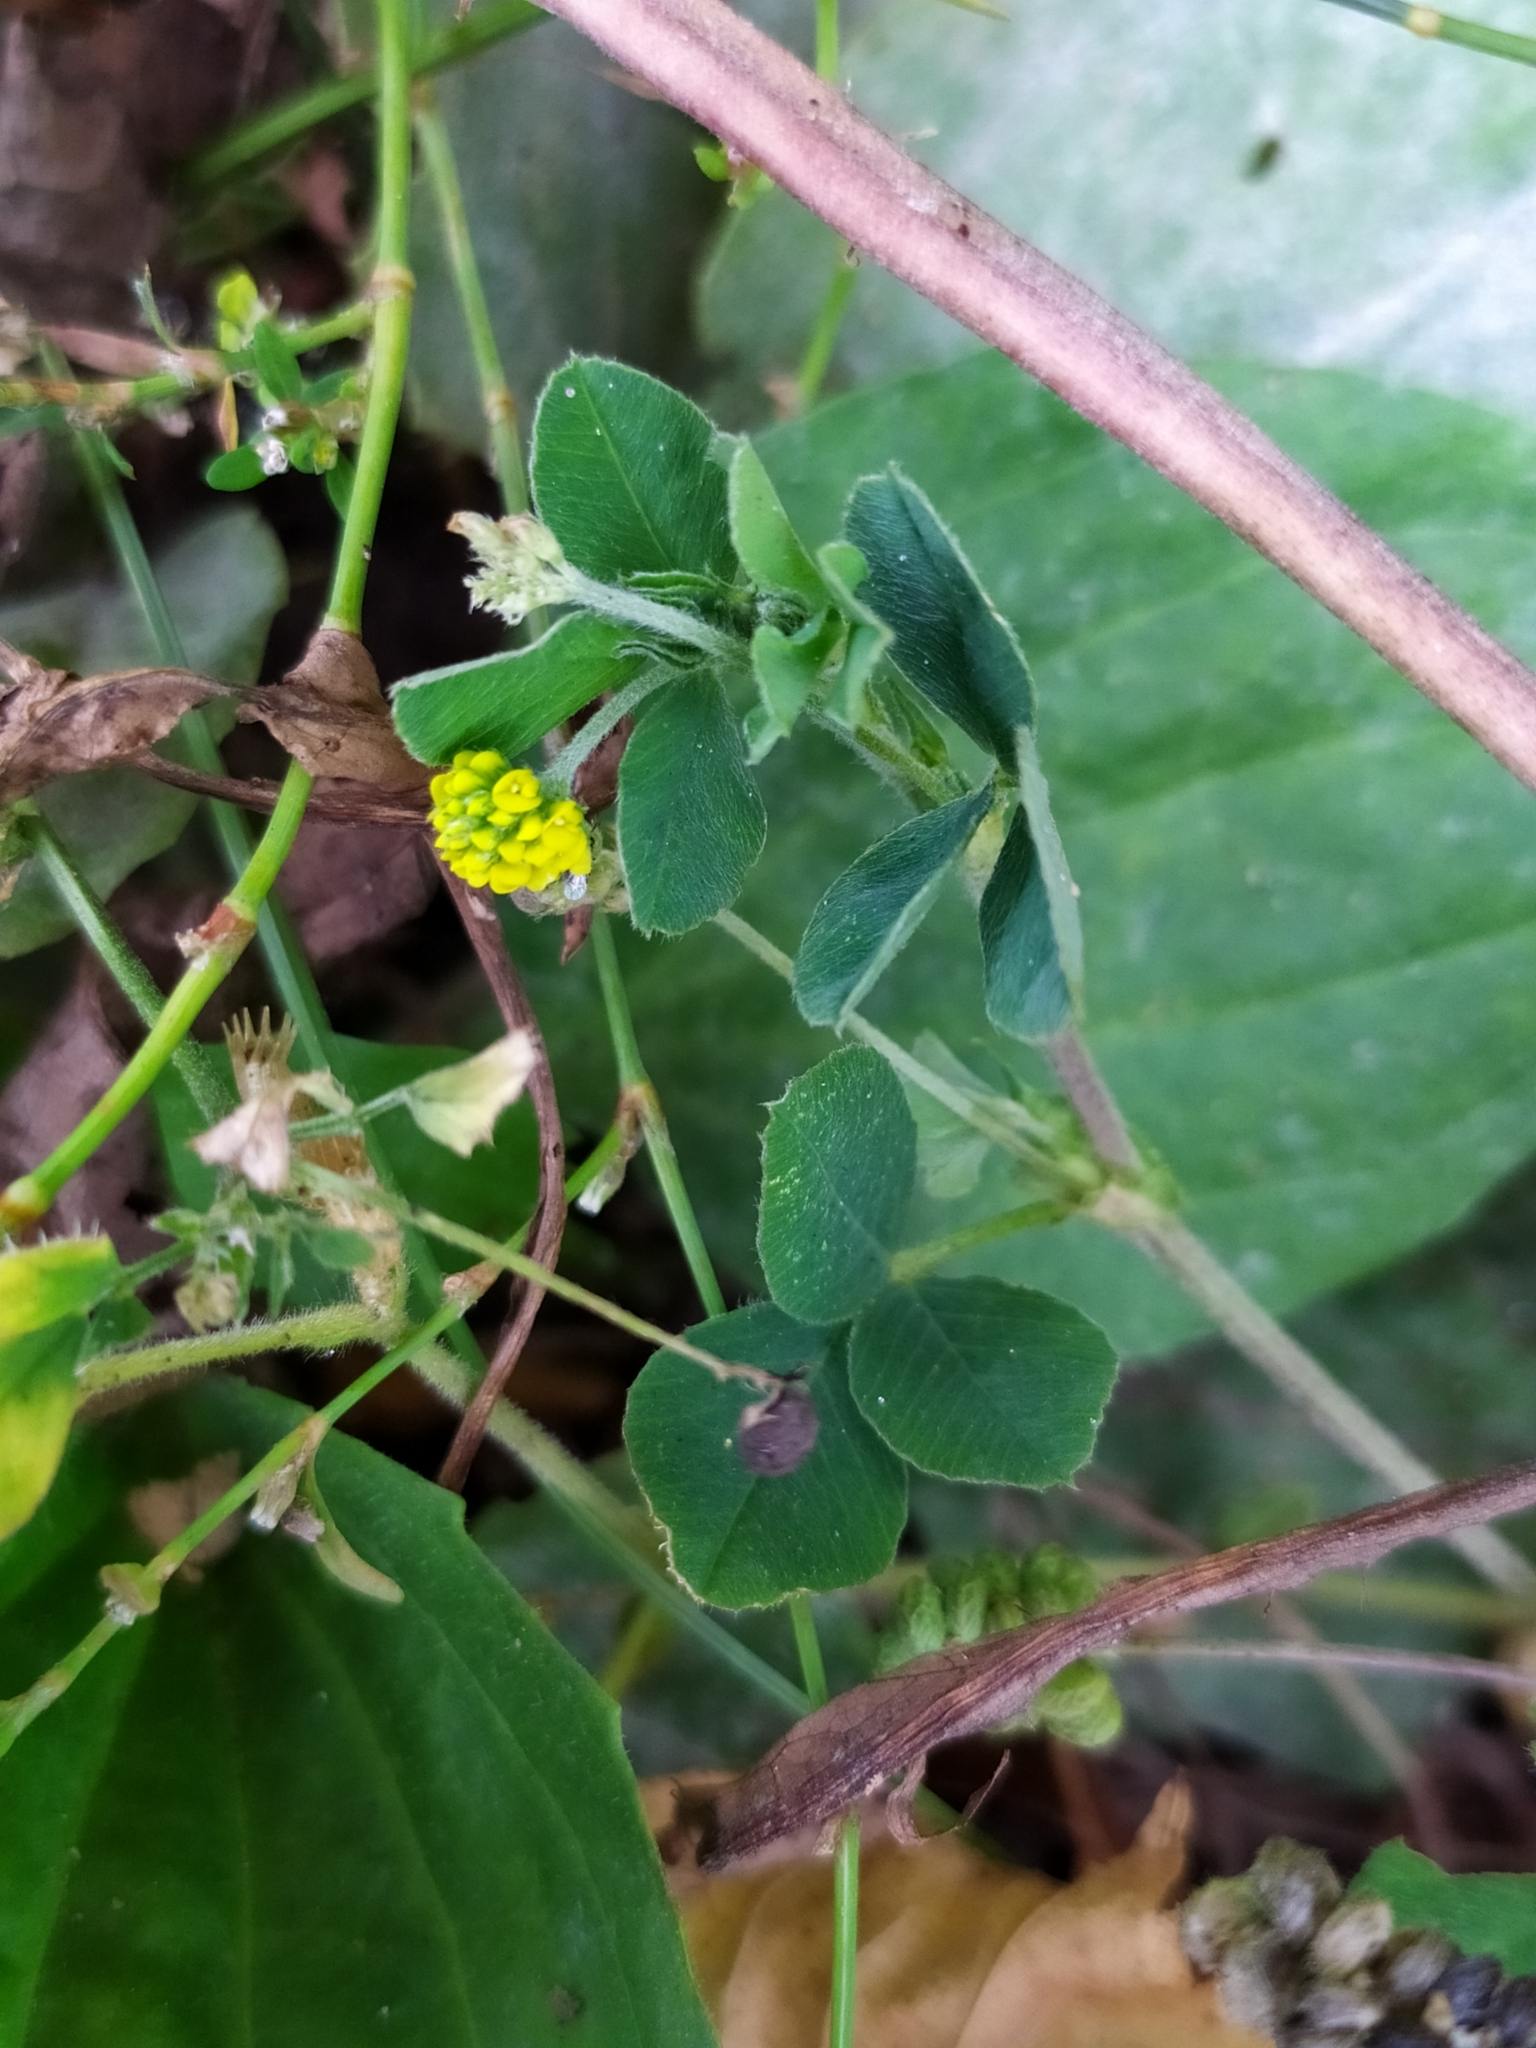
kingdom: Plantae
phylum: Tracheophyta
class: Magnoliopsida
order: Fabales
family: Fabaceae
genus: Medicago
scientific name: Medicago lupulina
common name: Black medick
